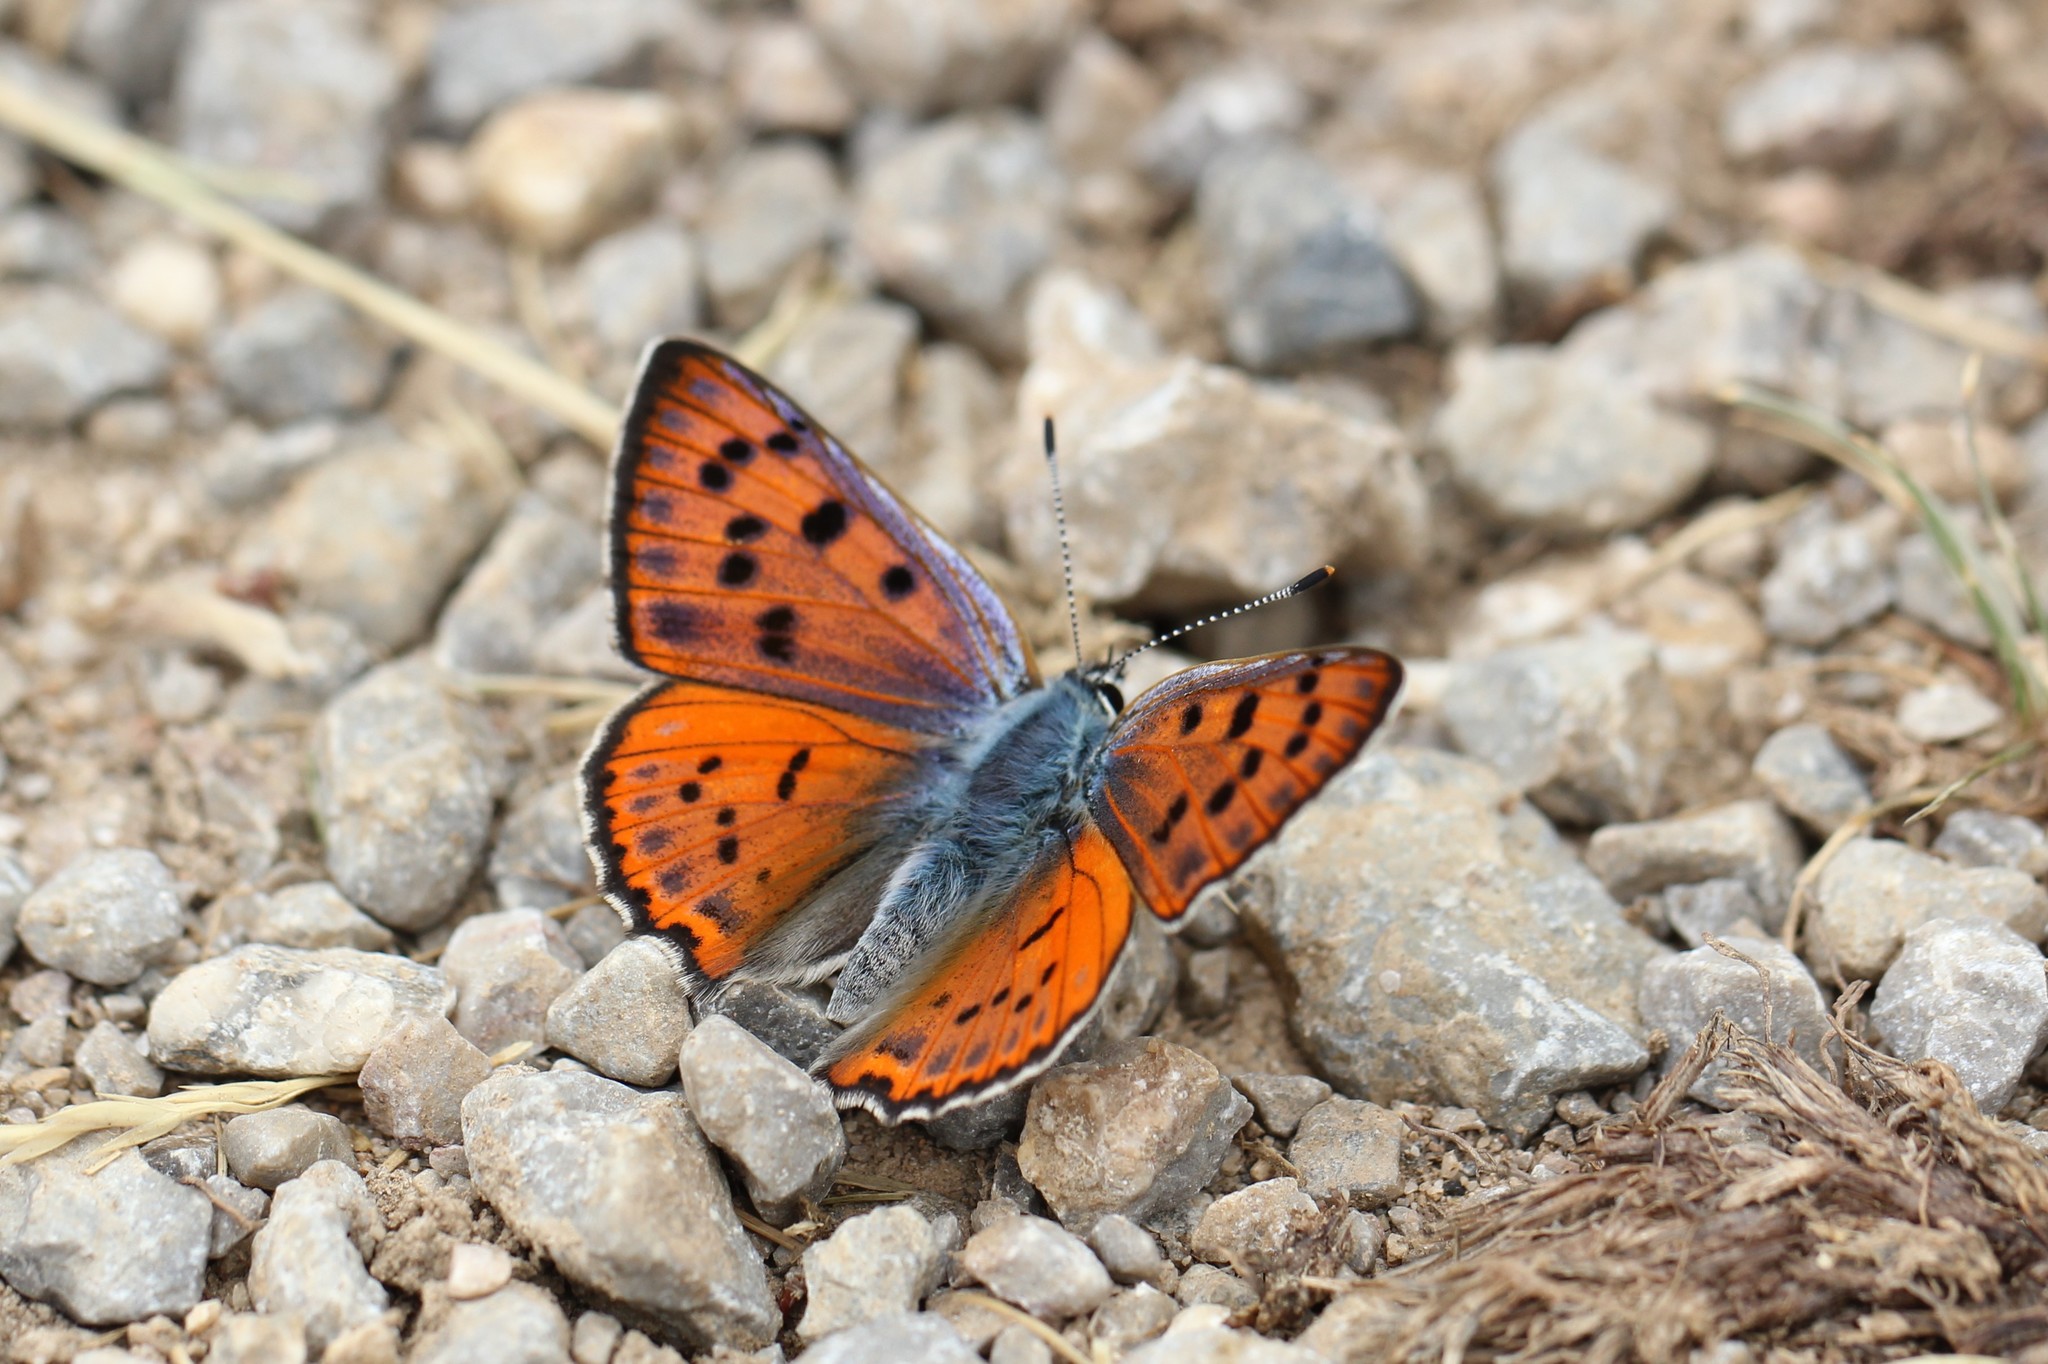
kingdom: Animalia
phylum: Arthropoda
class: Insecta
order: Lepidoptera
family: Lycaenidae
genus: Lycaena
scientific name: Lycaena alciphron
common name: Purple-shot copper
